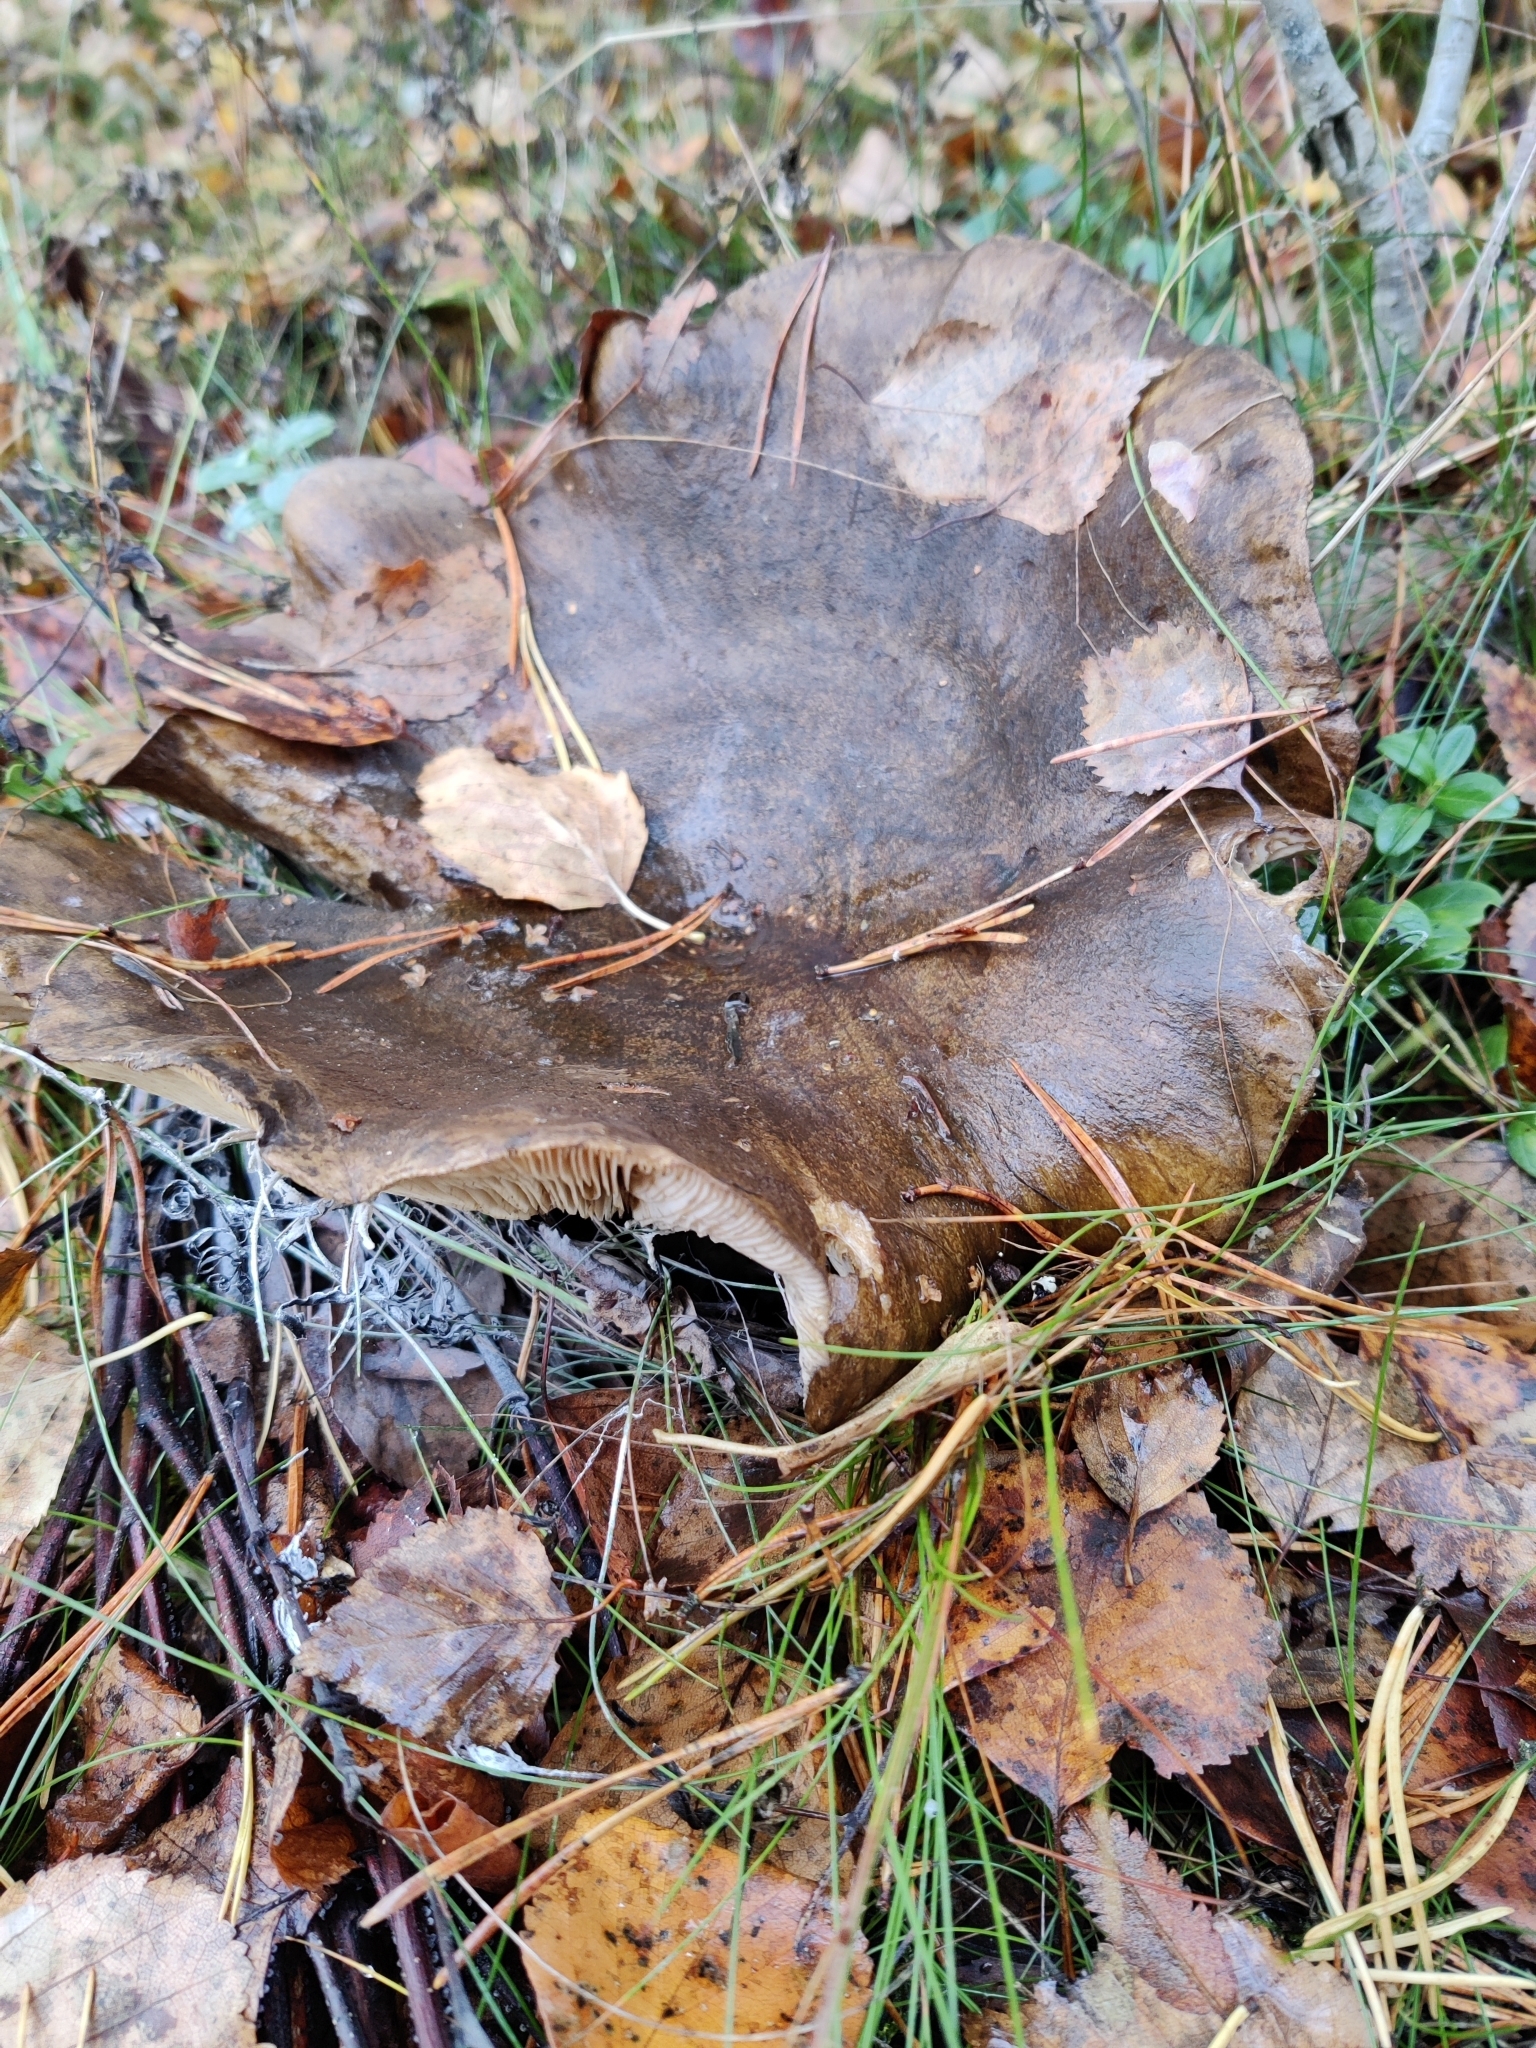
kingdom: Fungi
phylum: Basidiomycota
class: Agaricomycetes
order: Russulales
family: Russulaceae
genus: Lactarius
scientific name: Lactarius turpis
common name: Ugly milk-cap
